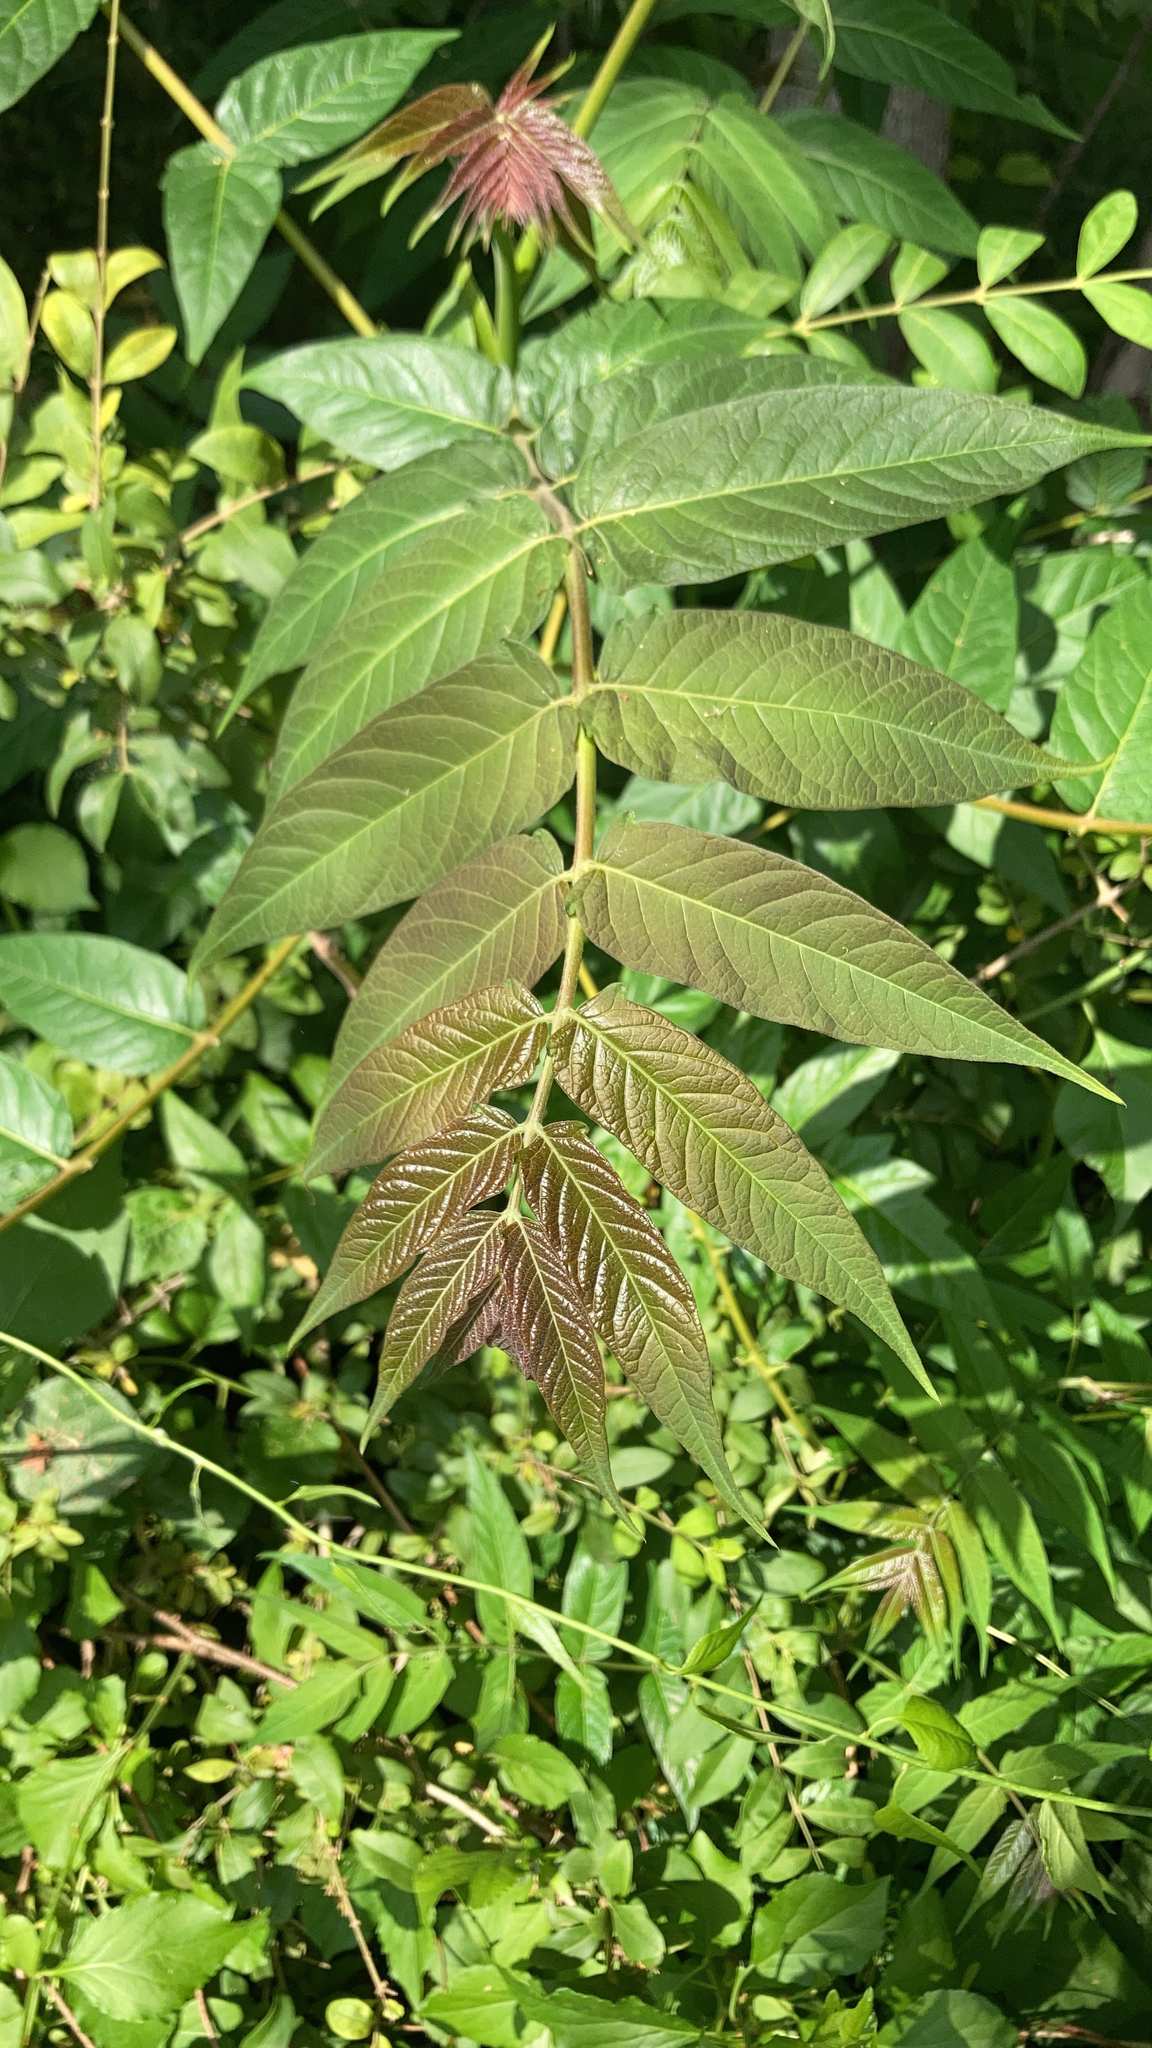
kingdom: Plantae
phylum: Tracheophyta
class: Magnoliopsida
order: Sapindales
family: Simaroubaceae
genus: Ailanthus
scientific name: Ailanthus altissima
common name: Tree-of-heaven
